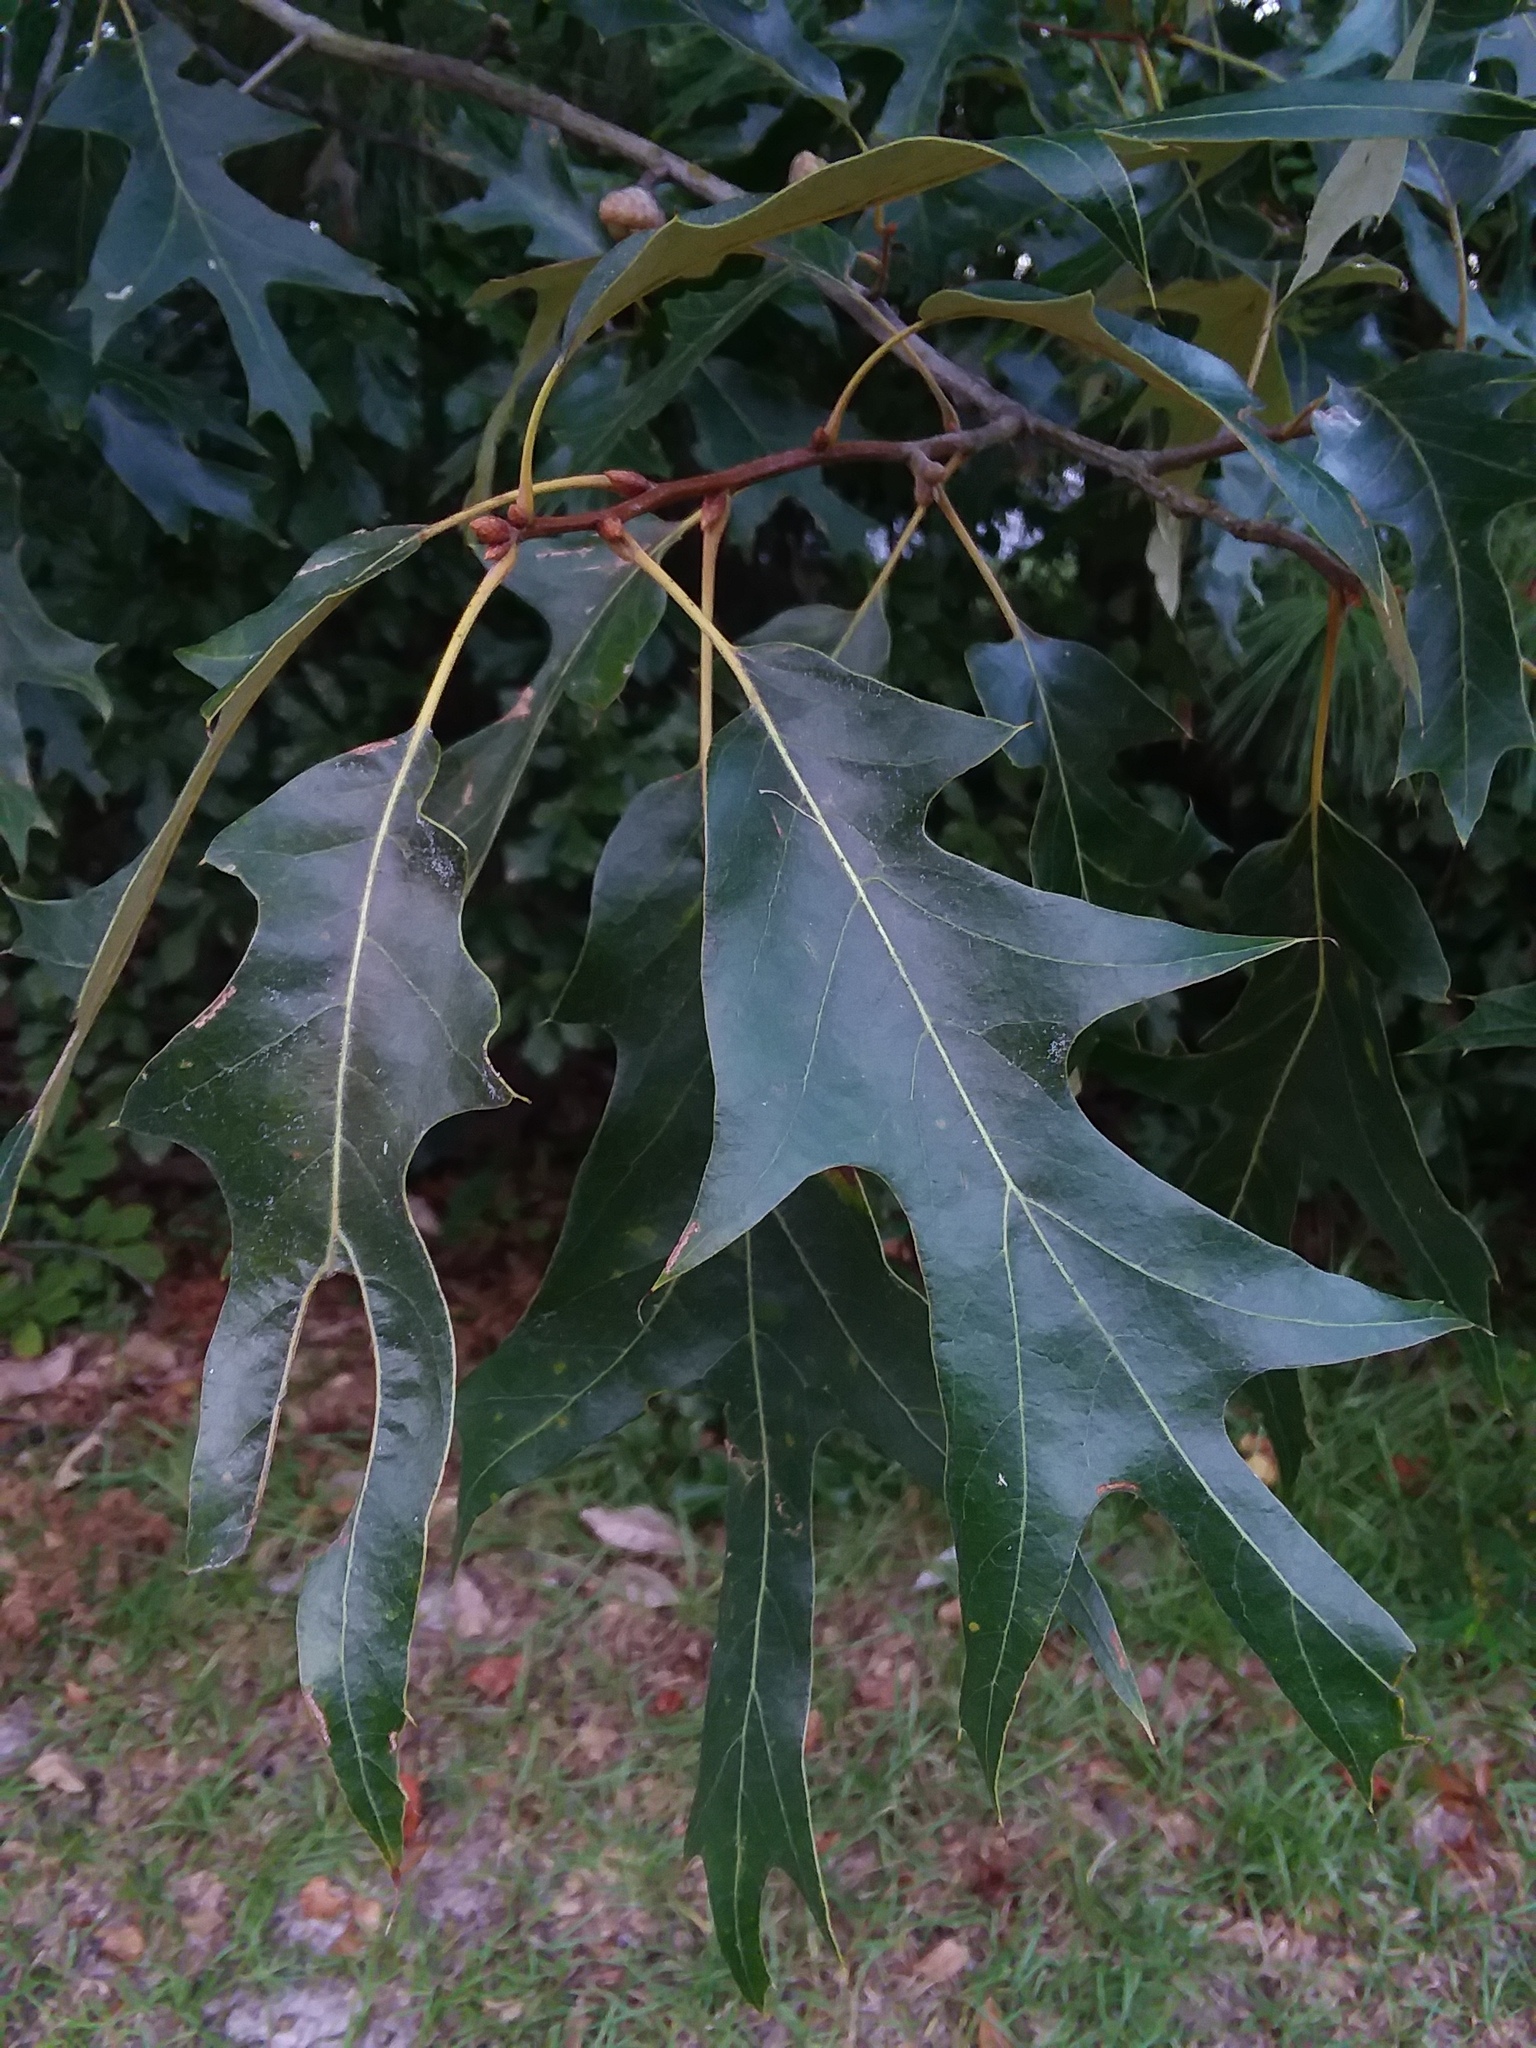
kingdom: Plantae
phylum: Tracheophyta
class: Magnoliopsida
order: Fagales
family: Fagaceae
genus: Quercus
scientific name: Quercus falcata
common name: Southern red oak
